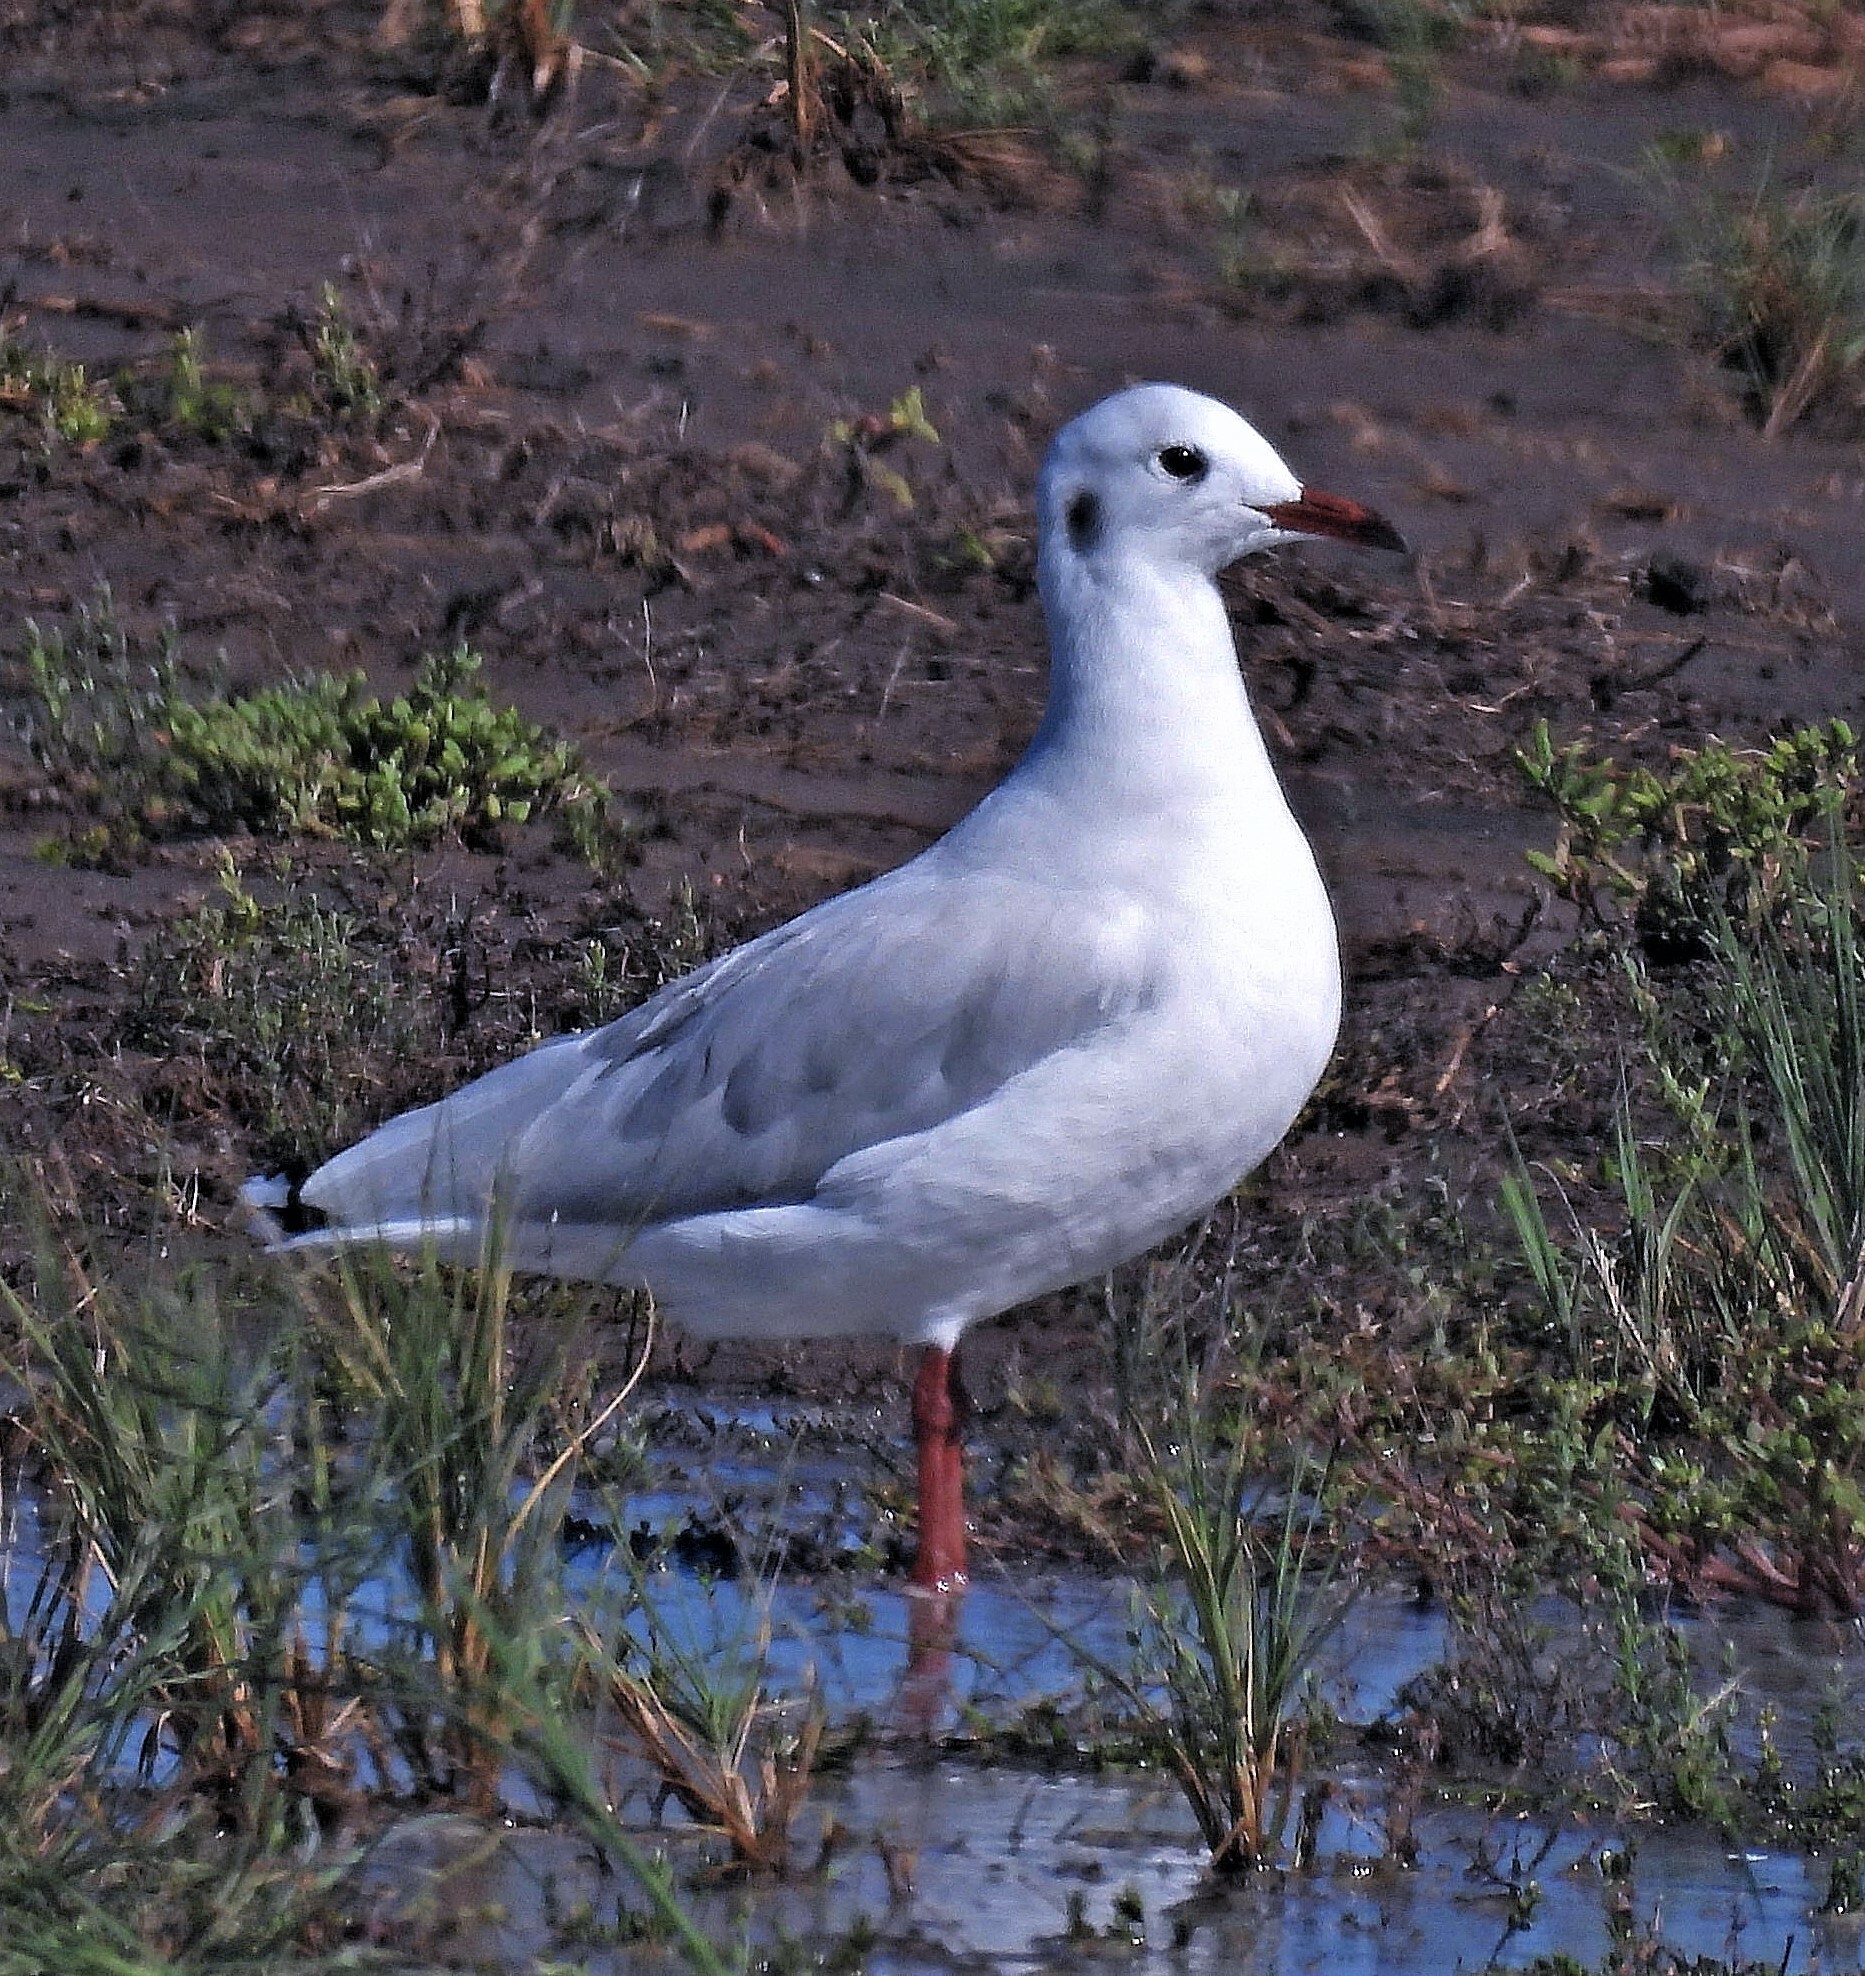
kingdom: Animalia
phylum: Chordata
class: Aves
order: Charadriiformes
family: Laridae
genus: Chroicocephalus
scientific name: Chroicocephalus maculipennis
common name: Brown-hooded gull
